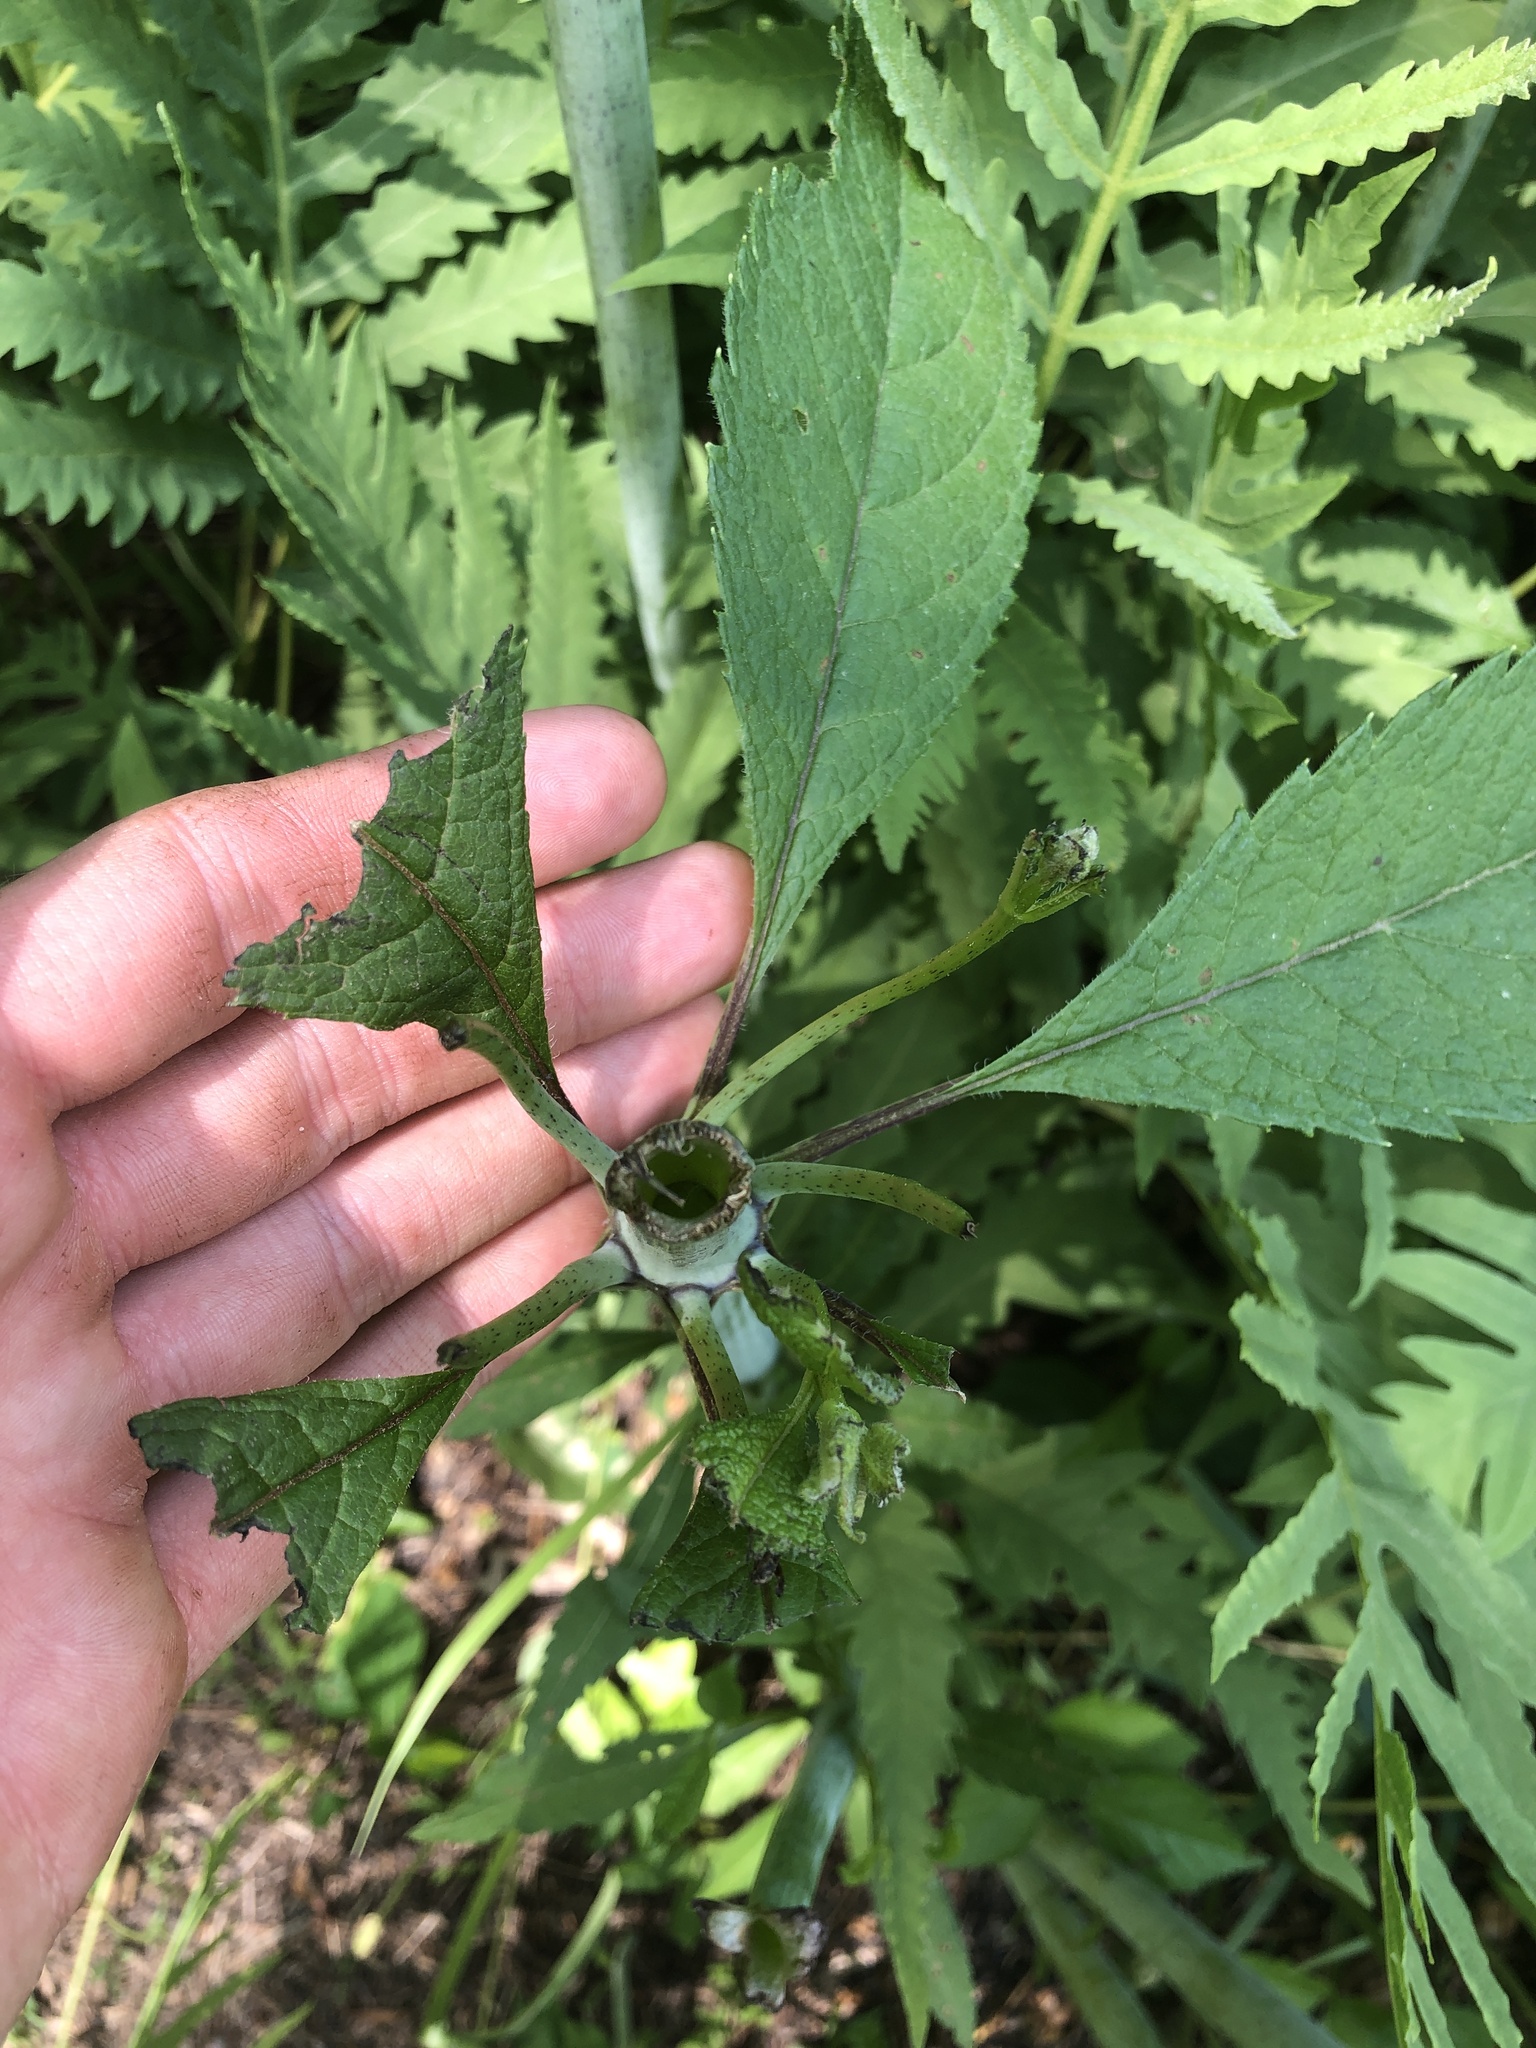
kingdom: Plantae
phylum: Tracheophyta
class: Magnoliopsida
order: Asterales
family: Asteraceae
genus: Eutrochium
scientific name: Eutrochium fistulosum
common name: Trumpetweed
